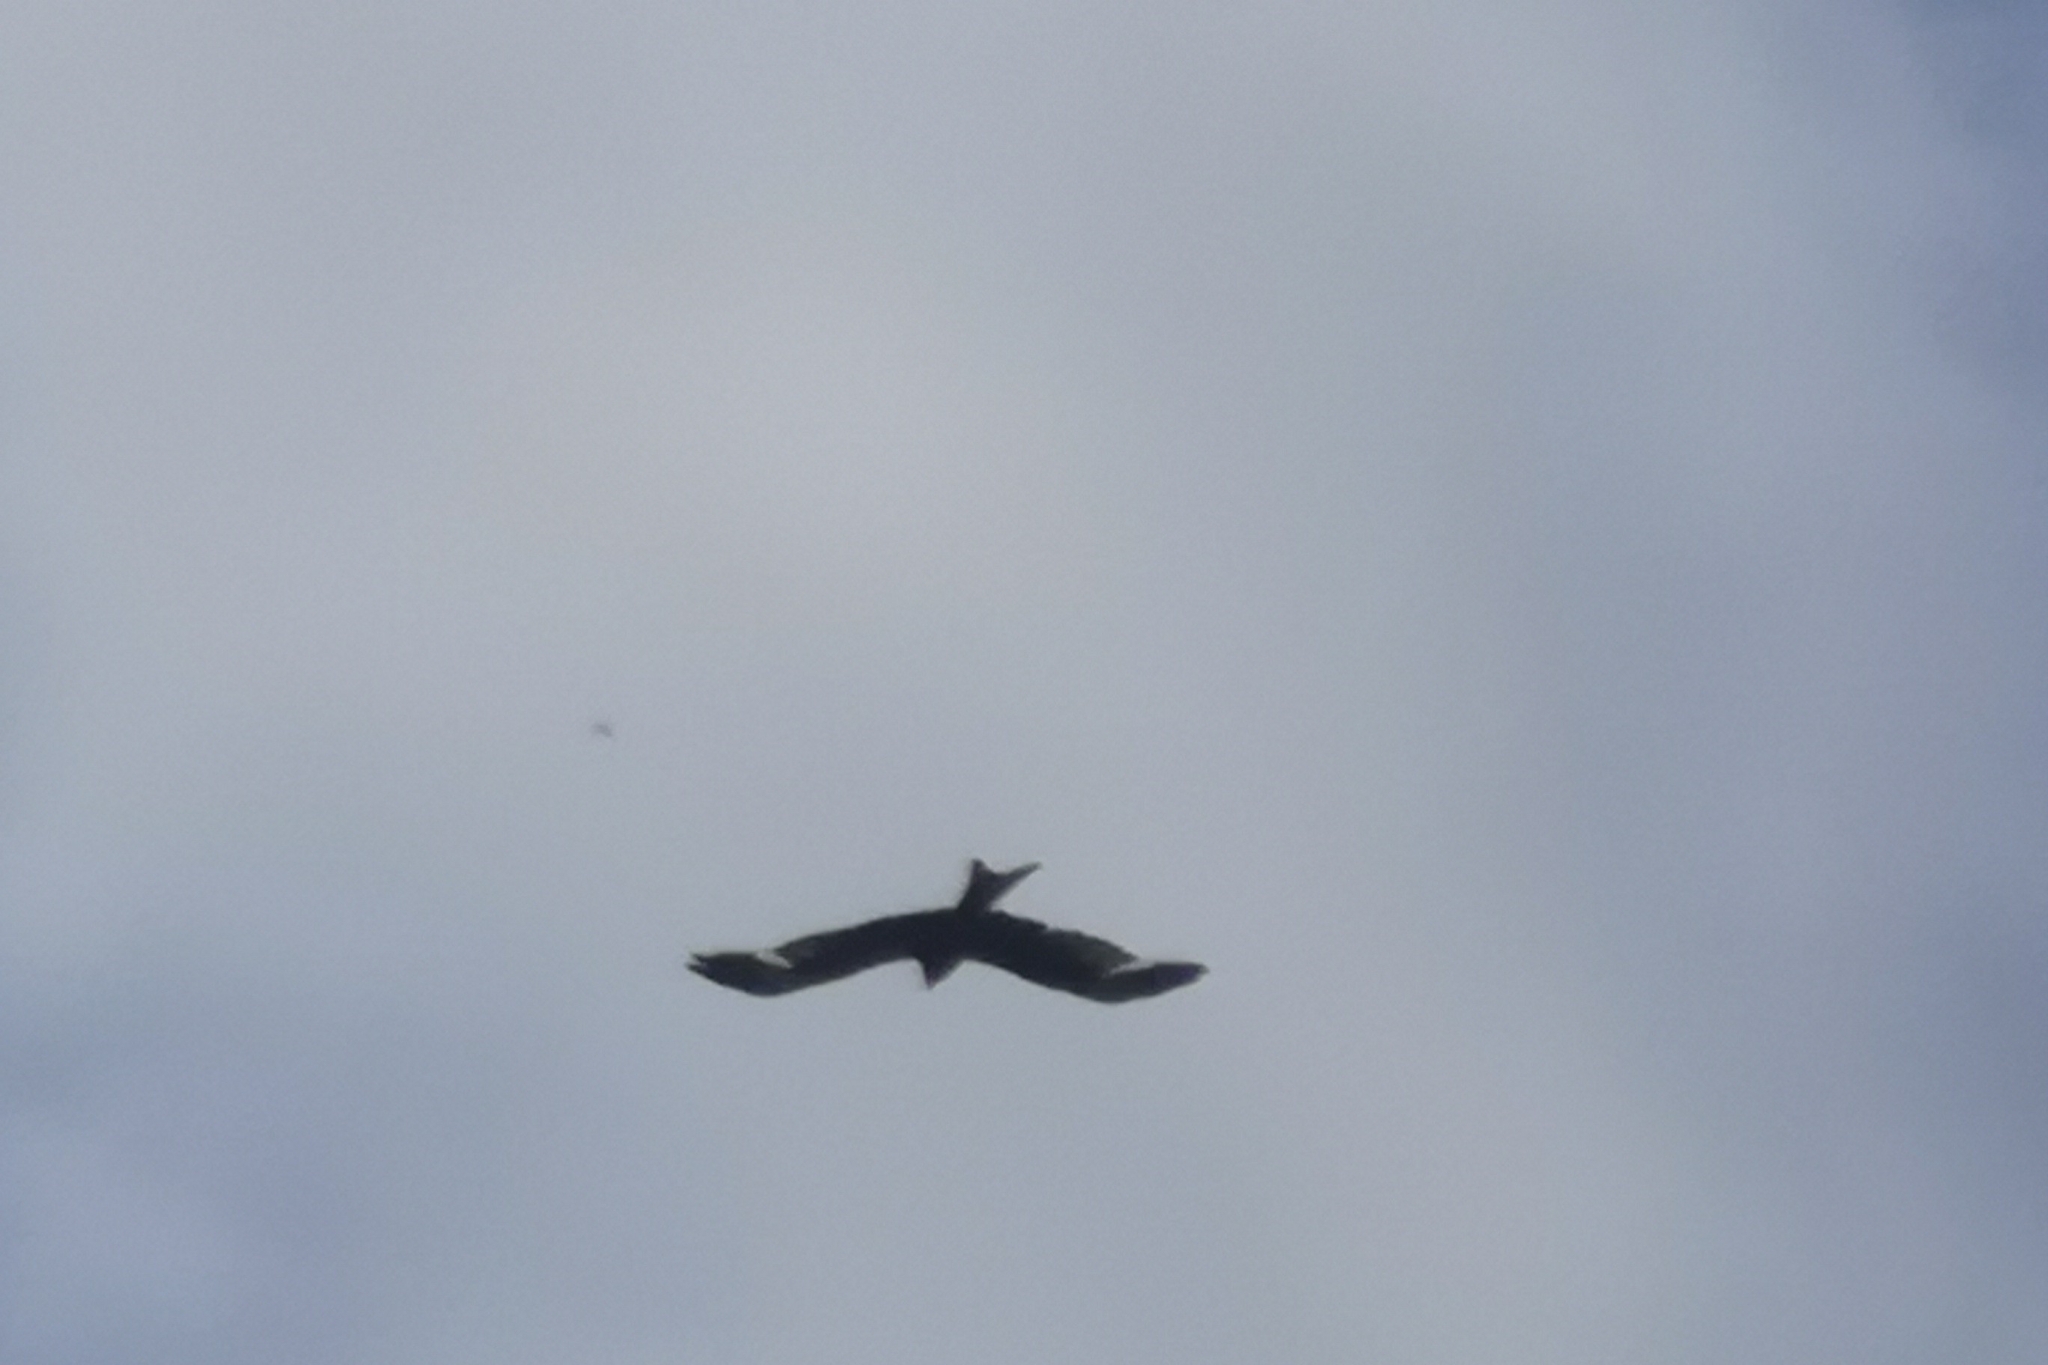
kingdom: Animalia
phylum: Chordata
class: Aves
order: Accipitriformes
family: Accipitridae
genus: Milvus
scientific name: Milvus milvus
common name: Red kite
